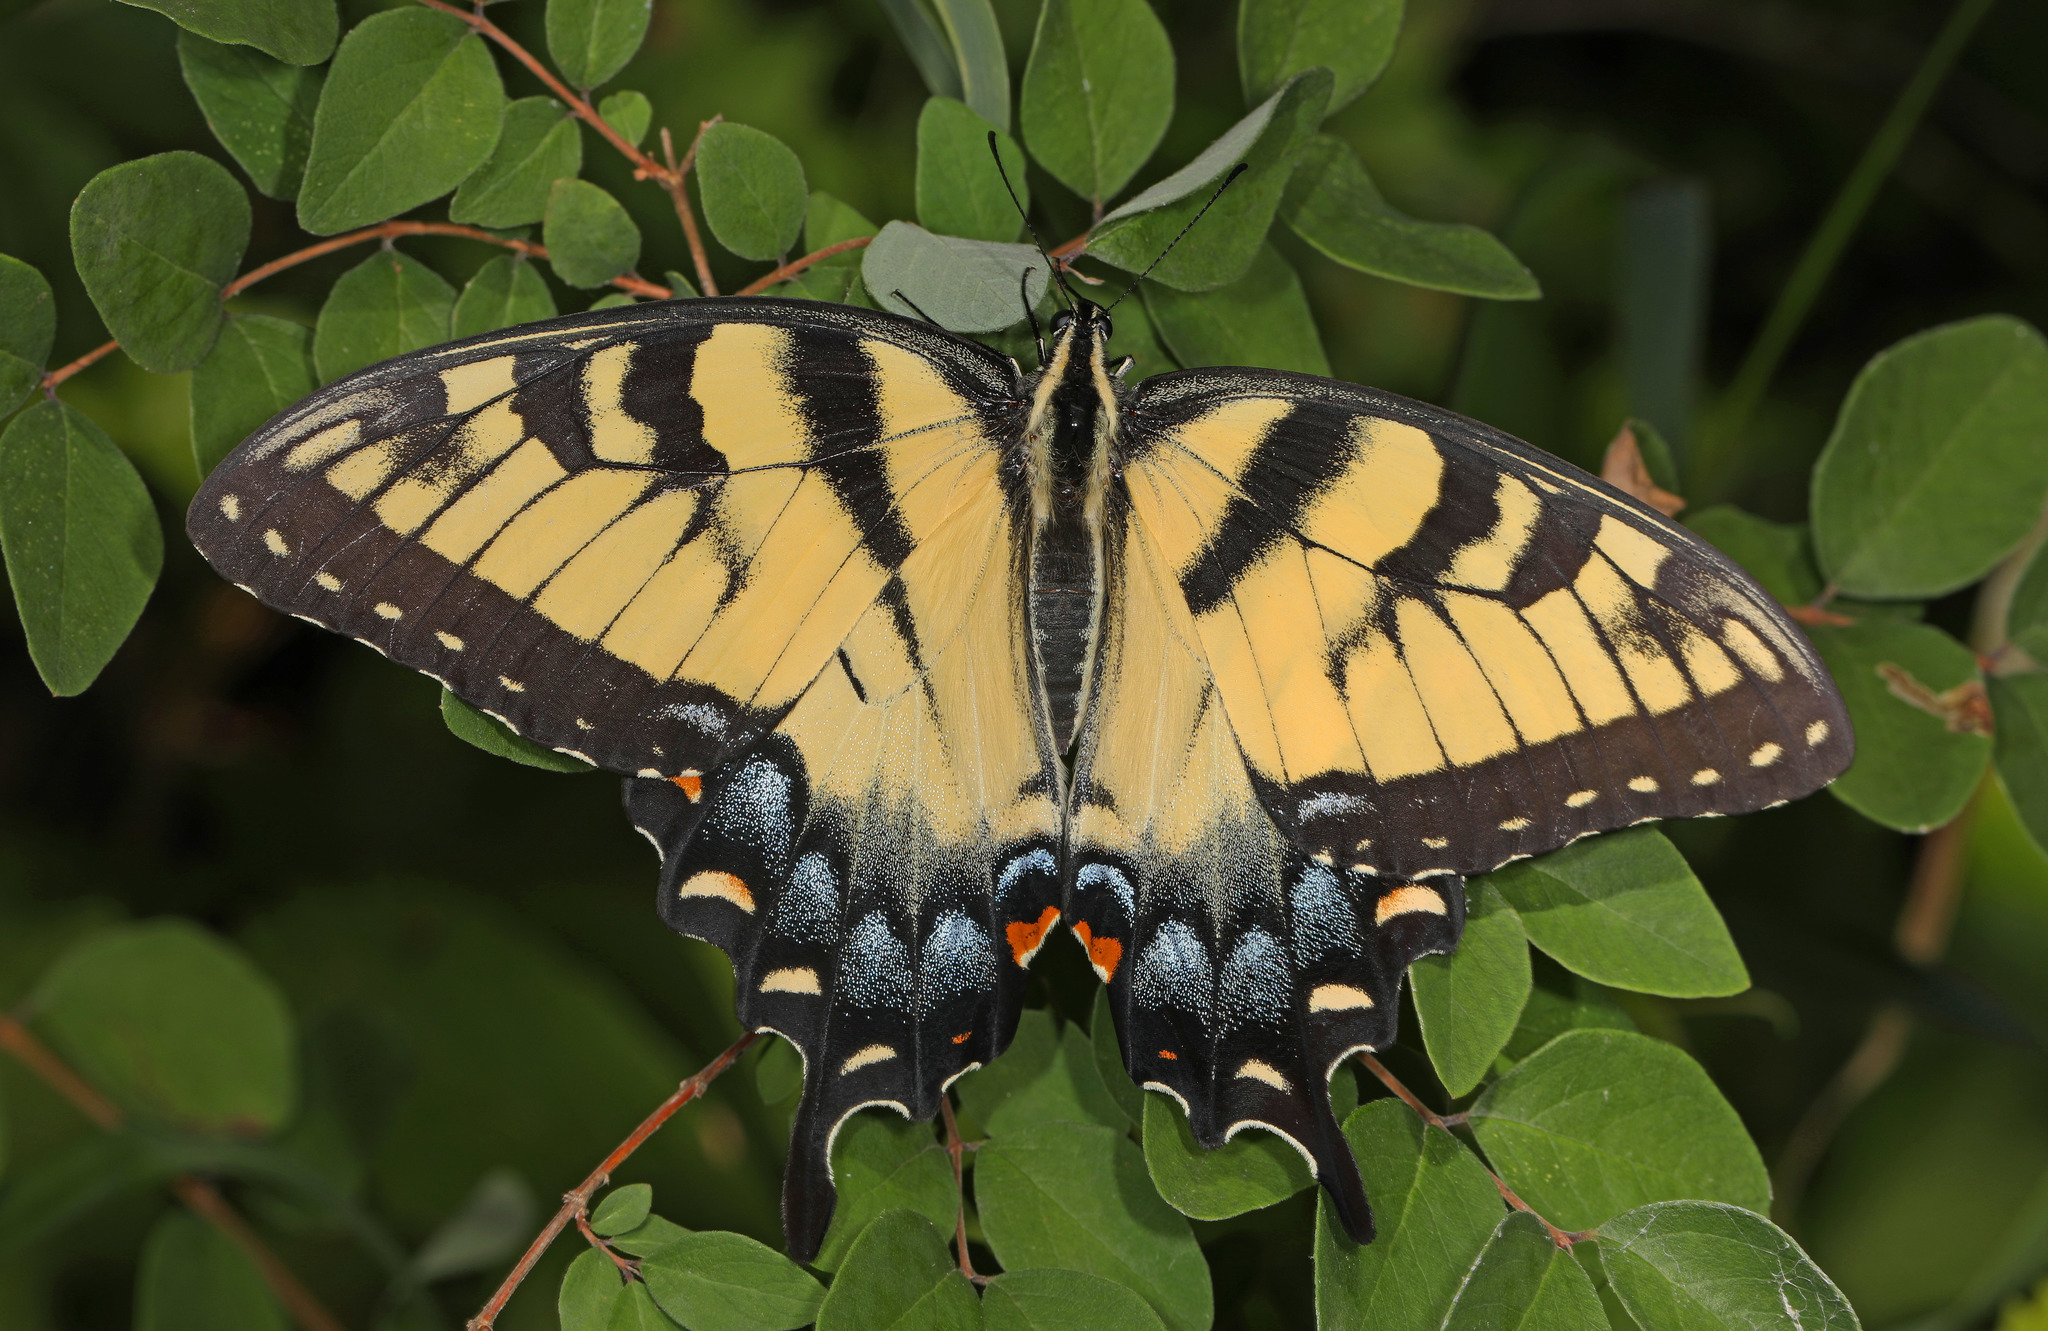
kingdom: Animalia
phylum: Arthropoda
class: Insecta
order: Lepidoptera
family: Papilionidae
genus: Papilio
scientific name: Papilio glaucus
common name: Tiger swallowtail
